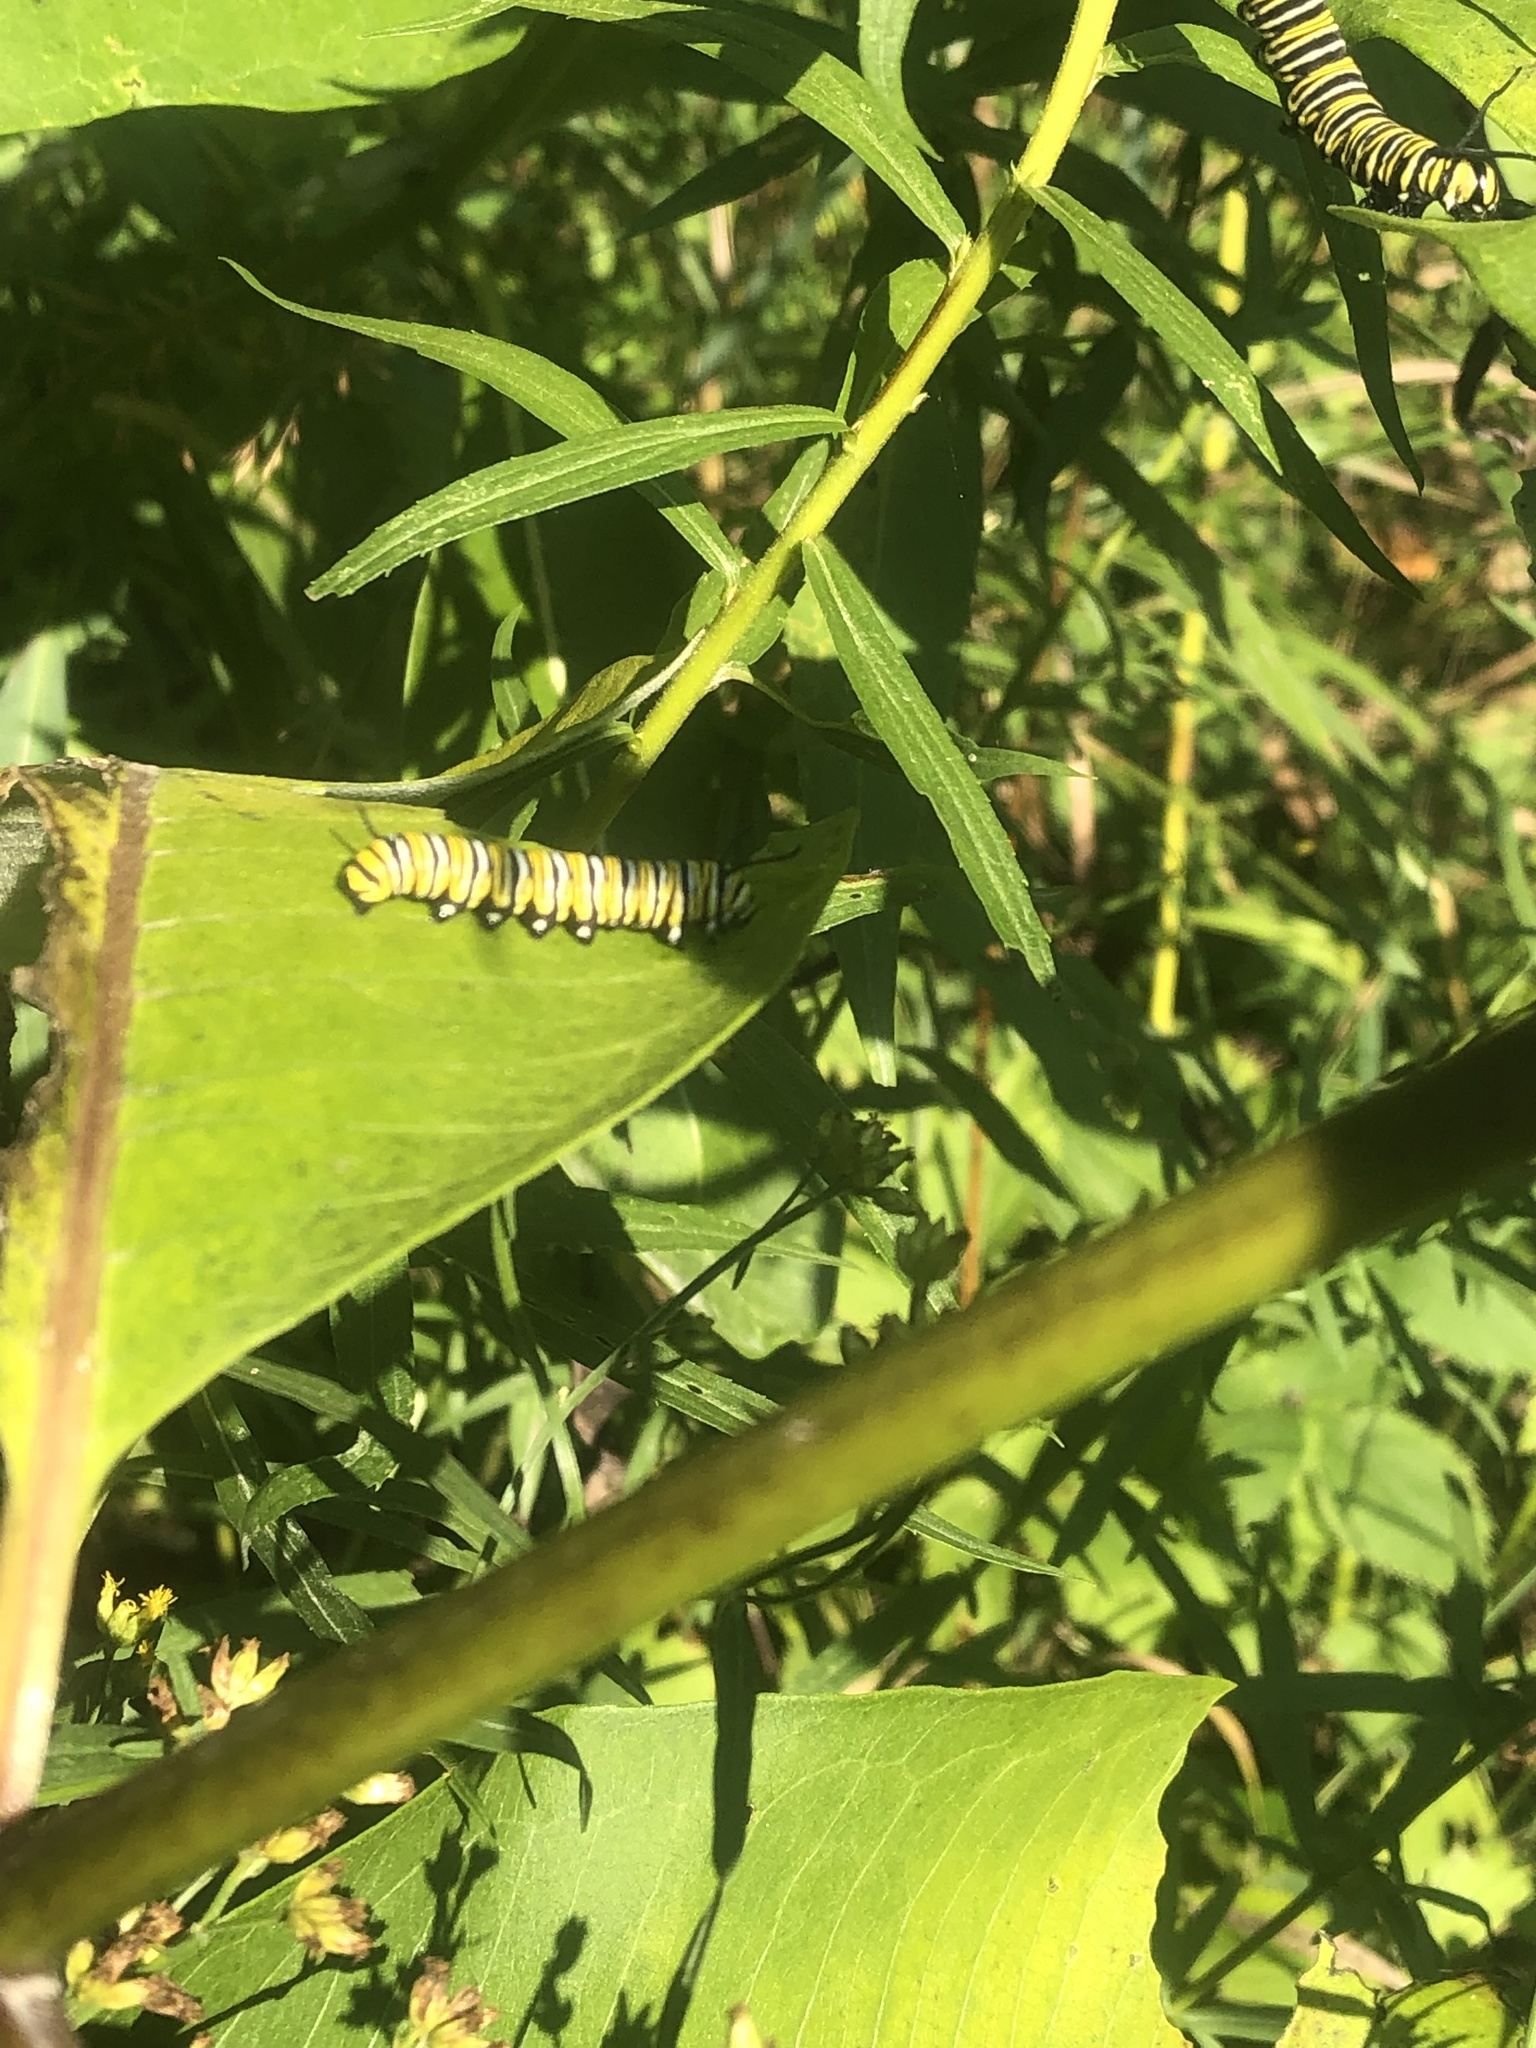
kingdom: Animalia
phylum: Arthropoda
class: Insecta
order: Lepidoptera
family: Nymphalidae
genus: Danaus
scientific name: Danaus plexippus
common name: Monarch
